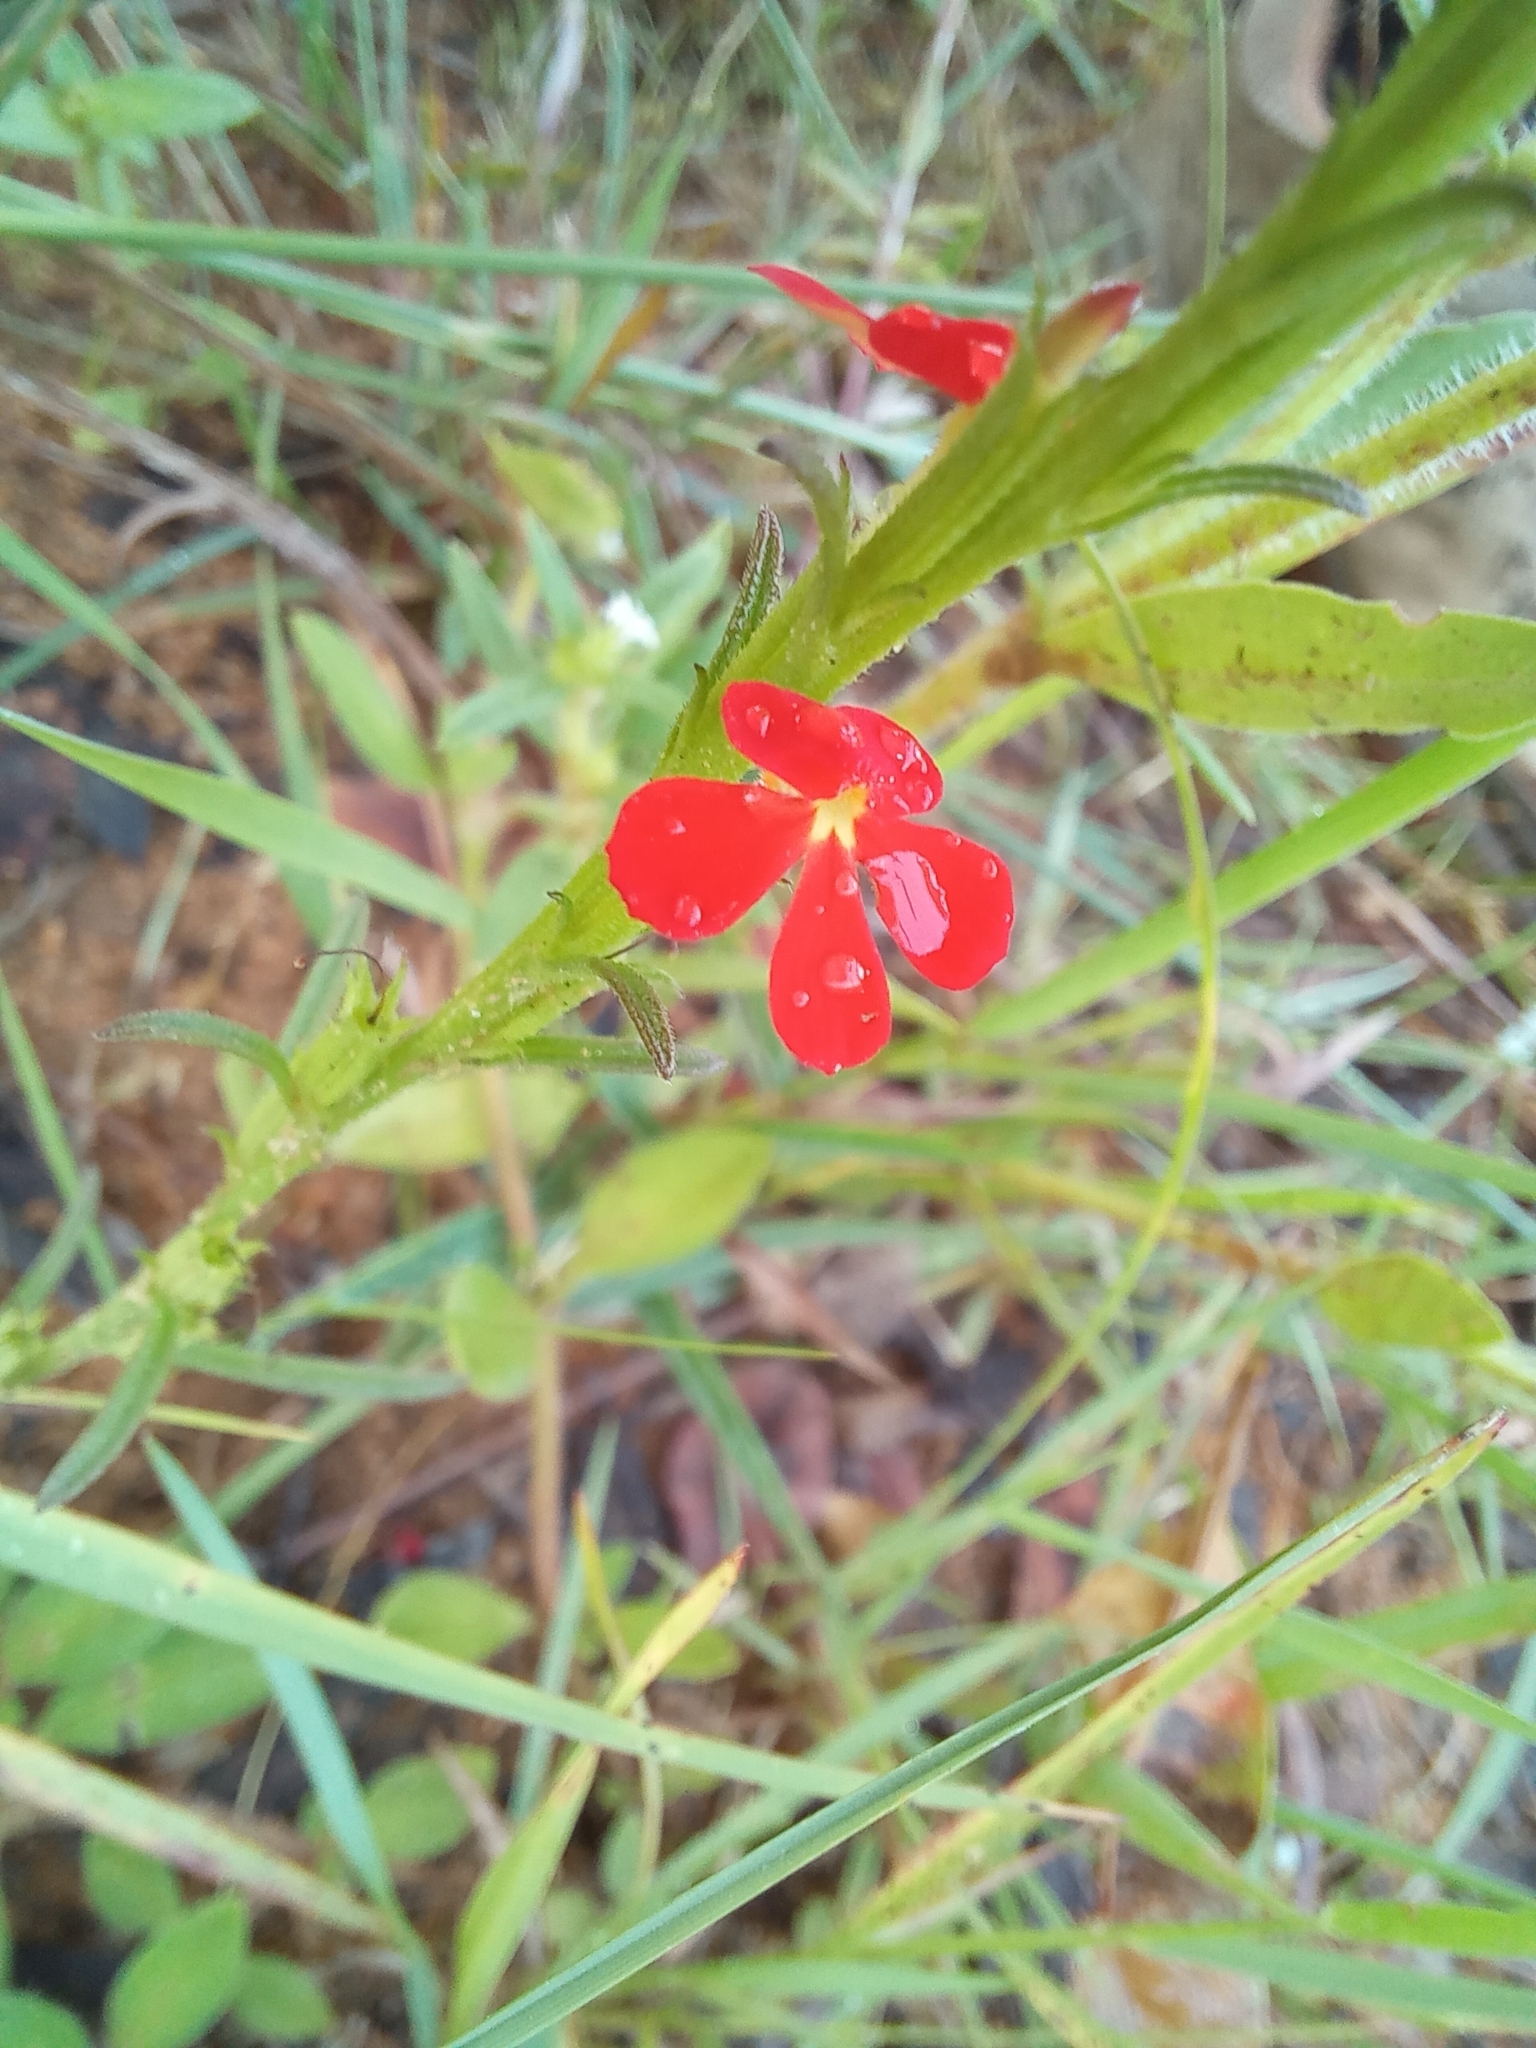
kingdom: Plantae
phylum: Tracheophyta
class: Magnoliopsida
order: Lamiales
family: Orobanchaceae
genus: Striga
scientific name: Striga asiatica
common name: Asiatic witchweed
